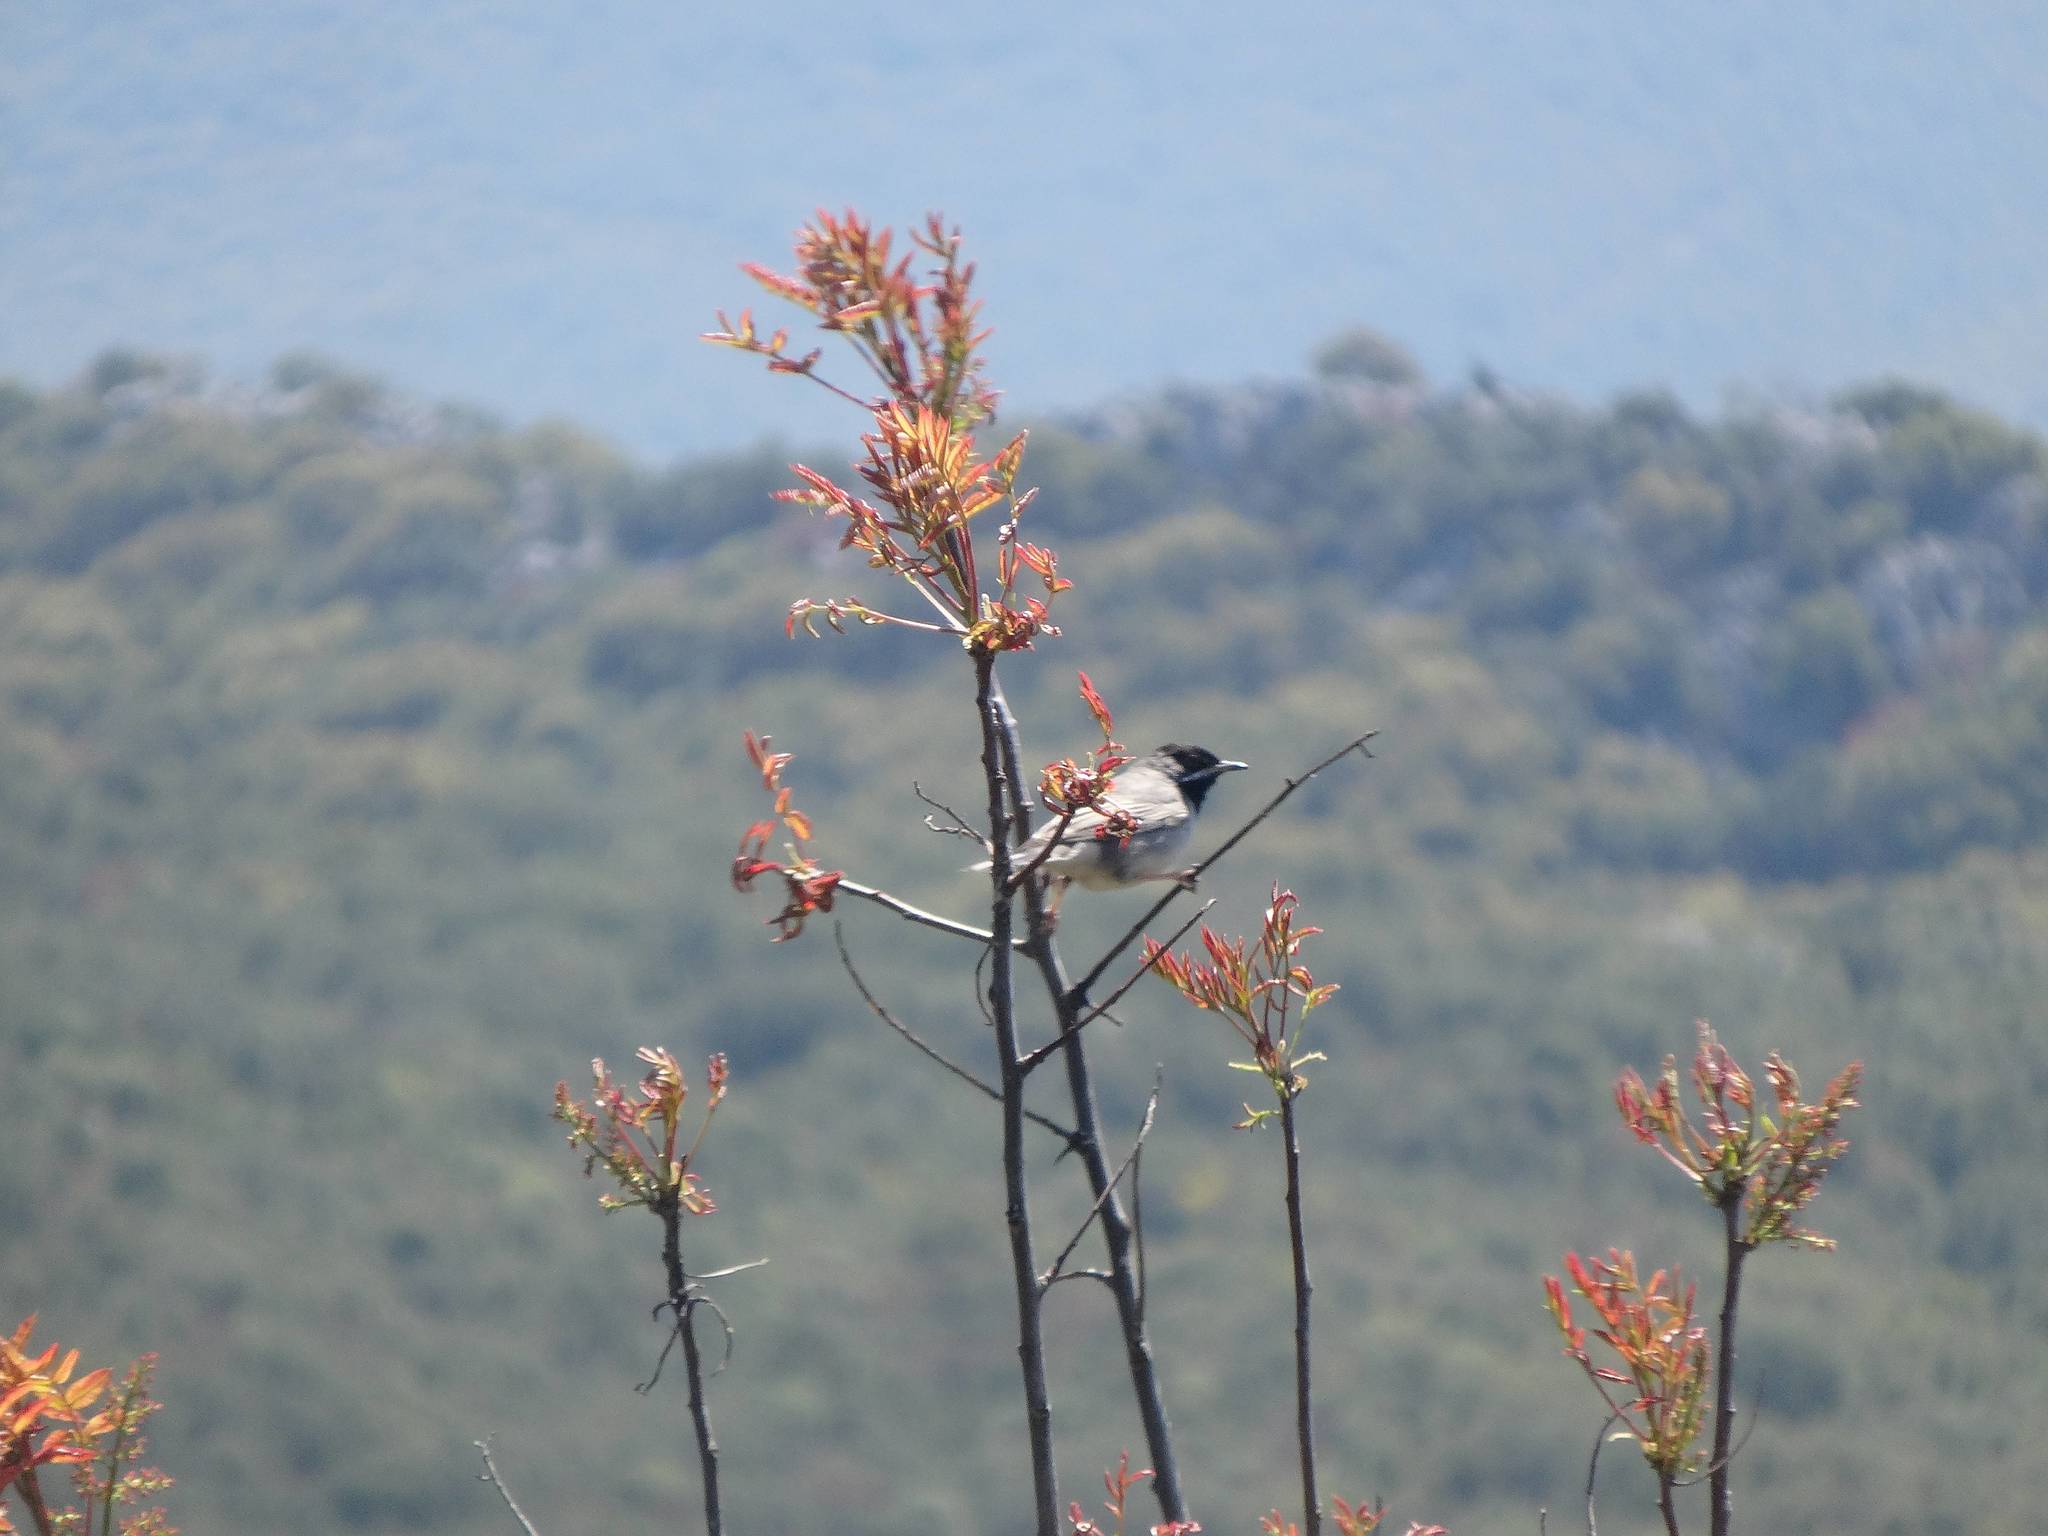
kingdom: Animalia
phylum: Chordata
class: Aves
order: Passeriformes
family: Sylviidae
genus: Sylvia
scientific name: Sylvia ruppeli
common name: Rüppell's warbler
